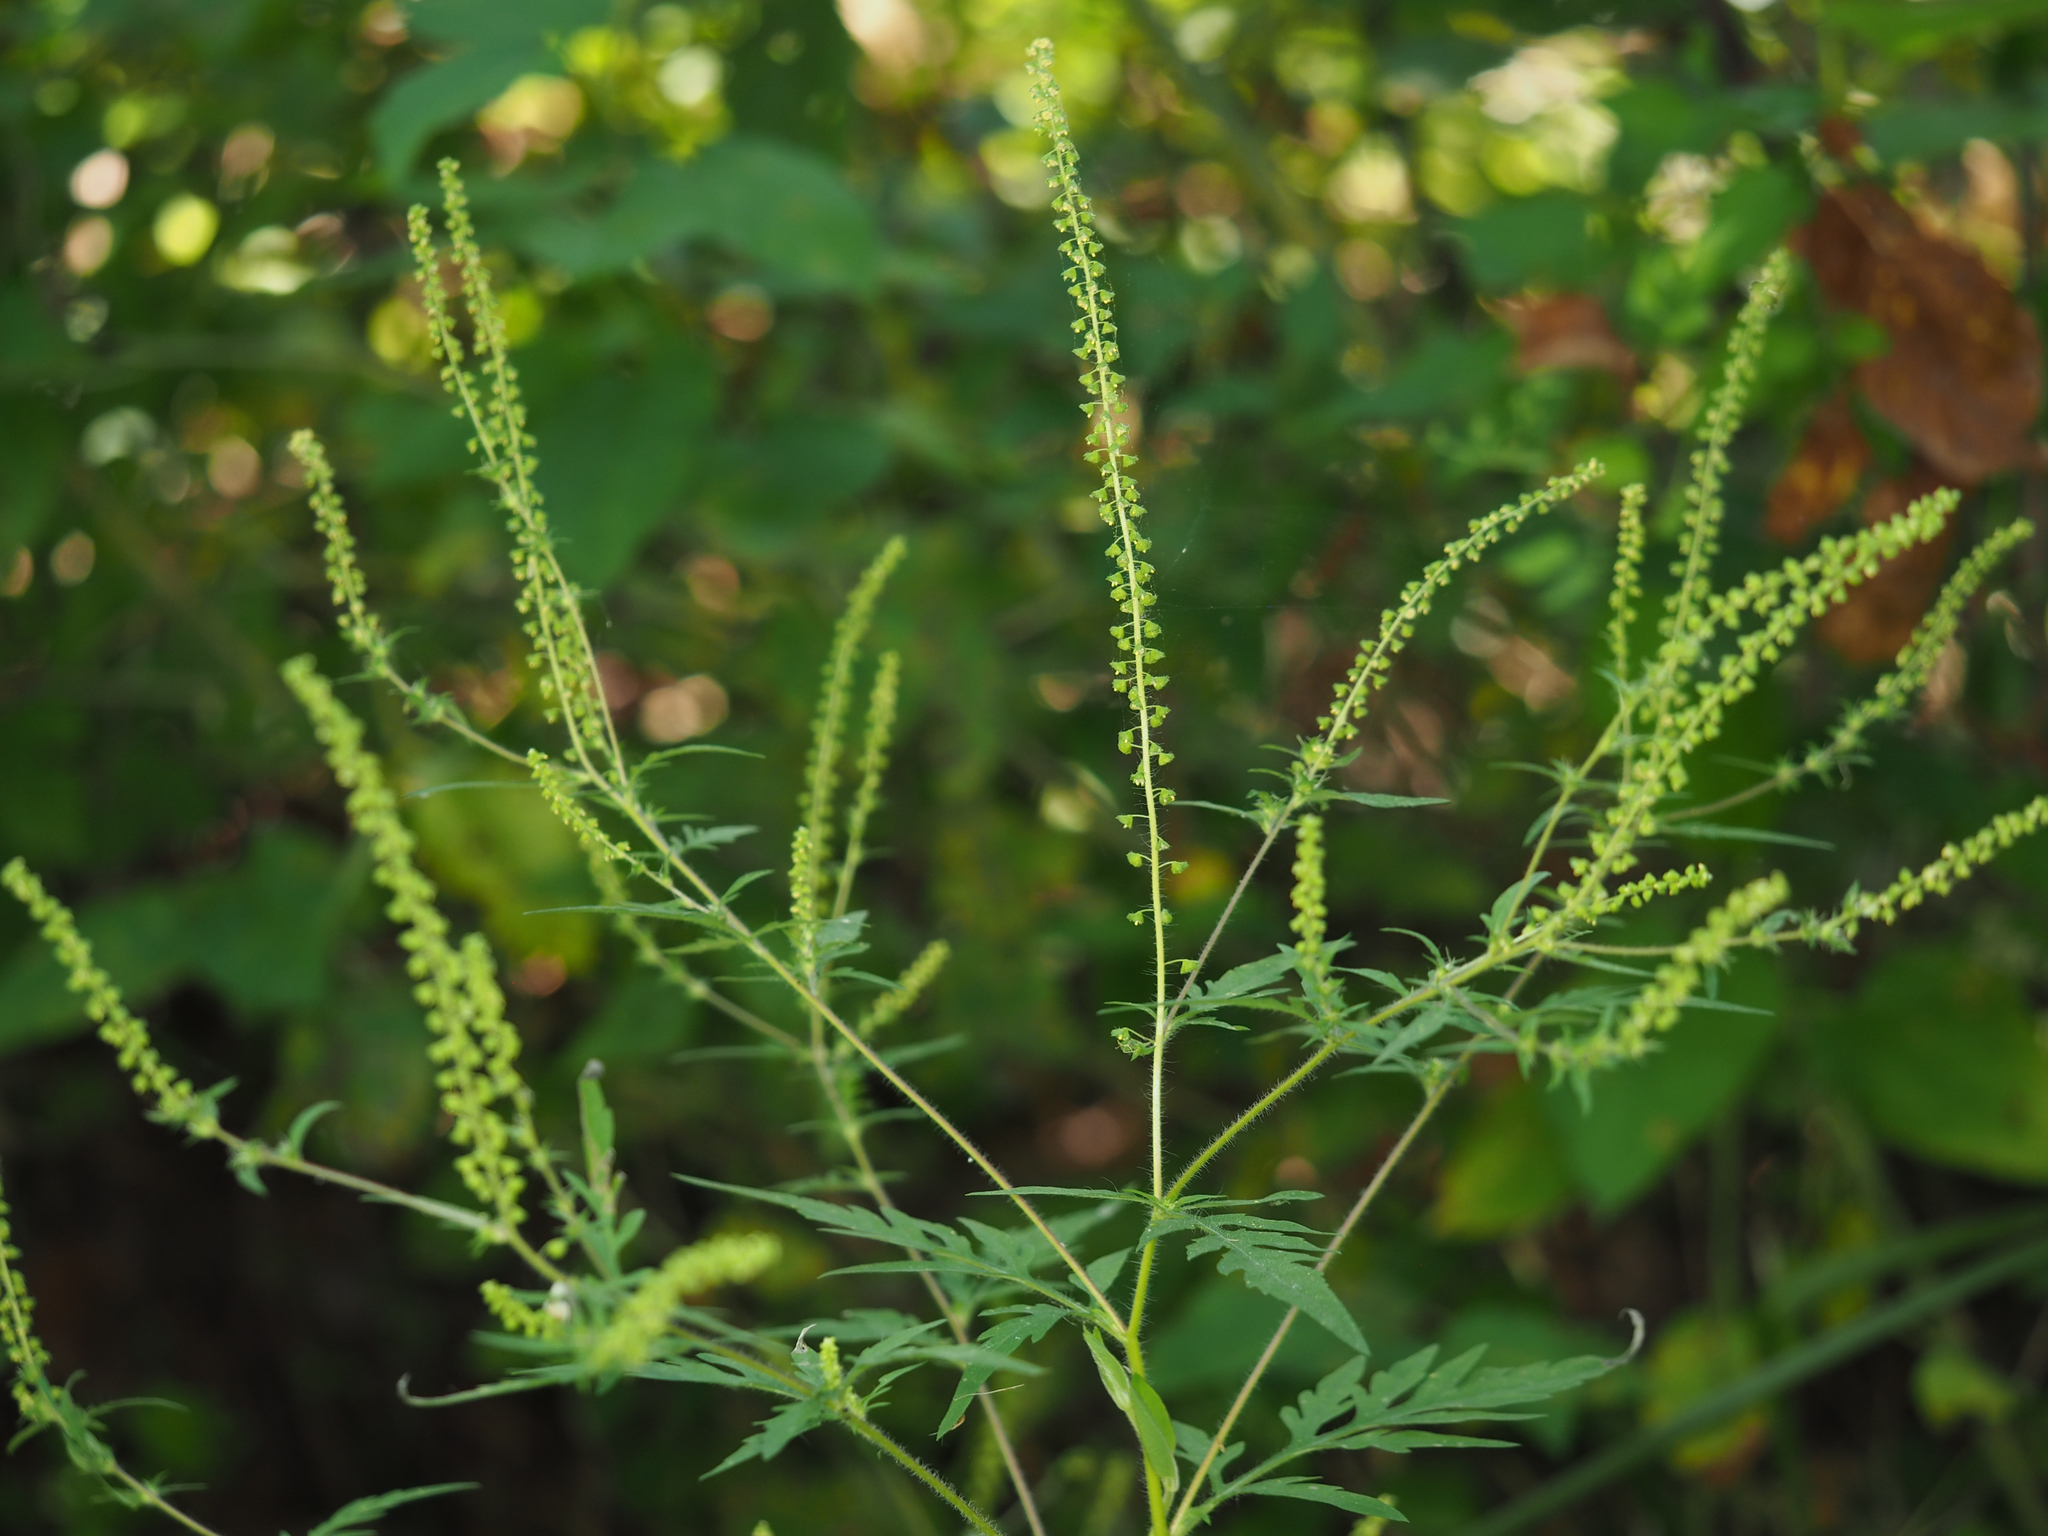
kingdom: Plantae
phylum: Tracheophyta
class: Magnoliopsida
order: Asterales
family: Asteraceae
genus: Ambrosia
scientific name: Ambrosia artemisiifolia
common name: Annual ragweed
